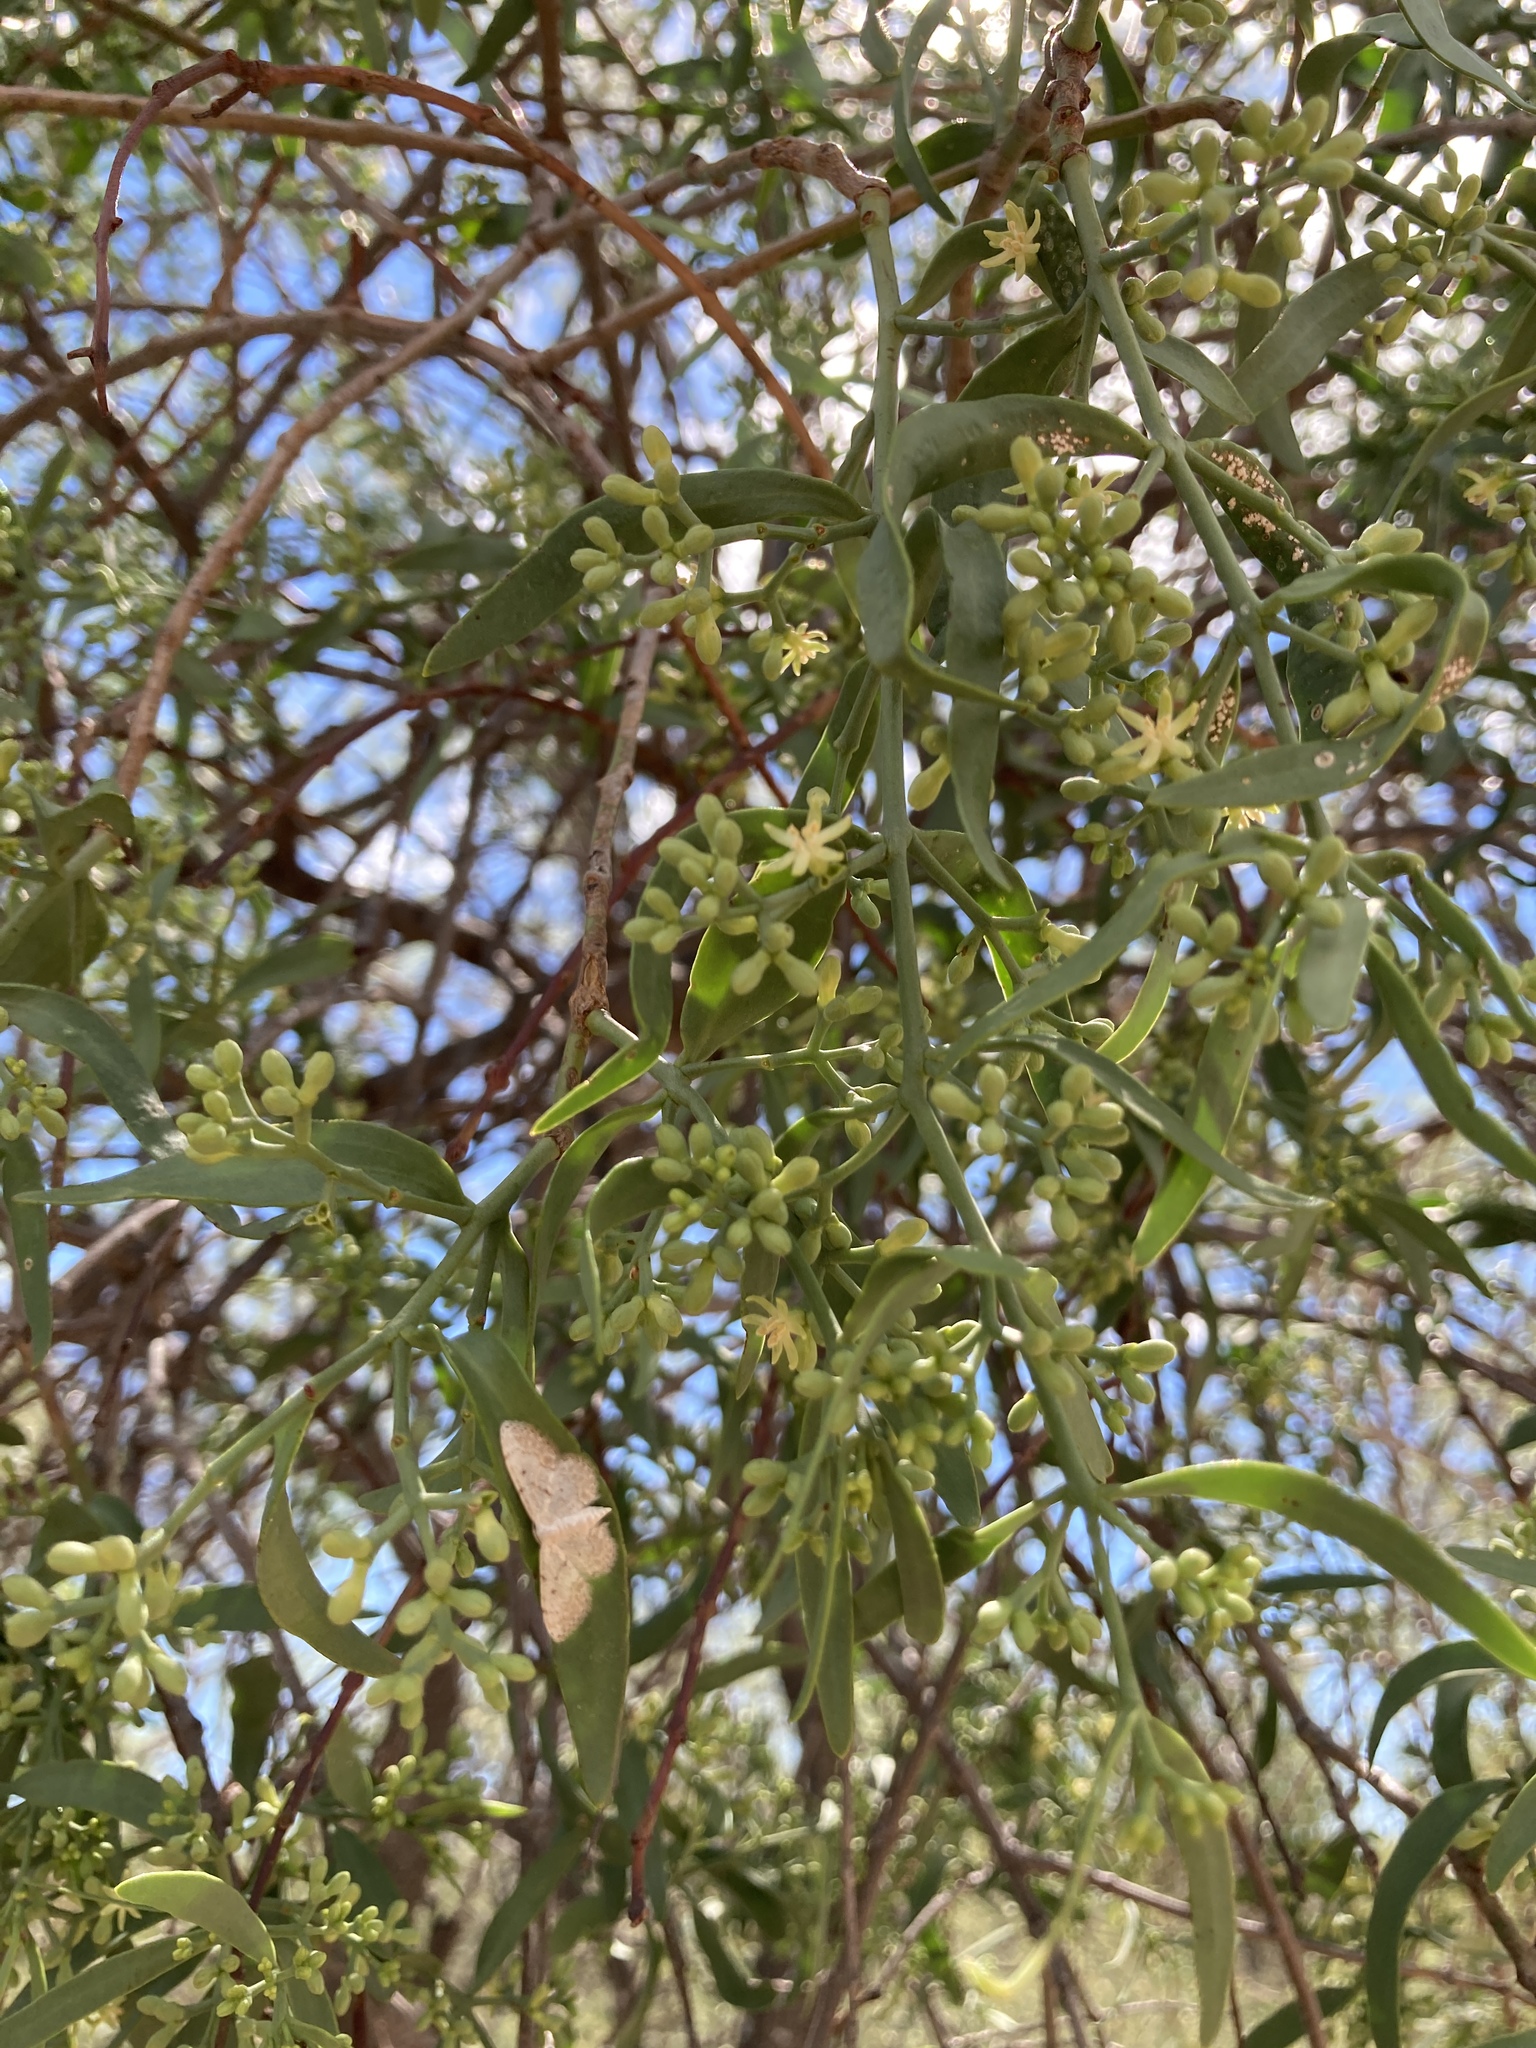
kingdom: Plantae
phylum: Tracheophyta
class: Magnoliopsida
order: Santalales
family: Loranthaceae
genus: Struthanthus
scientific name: Struthanthus uraguensis
